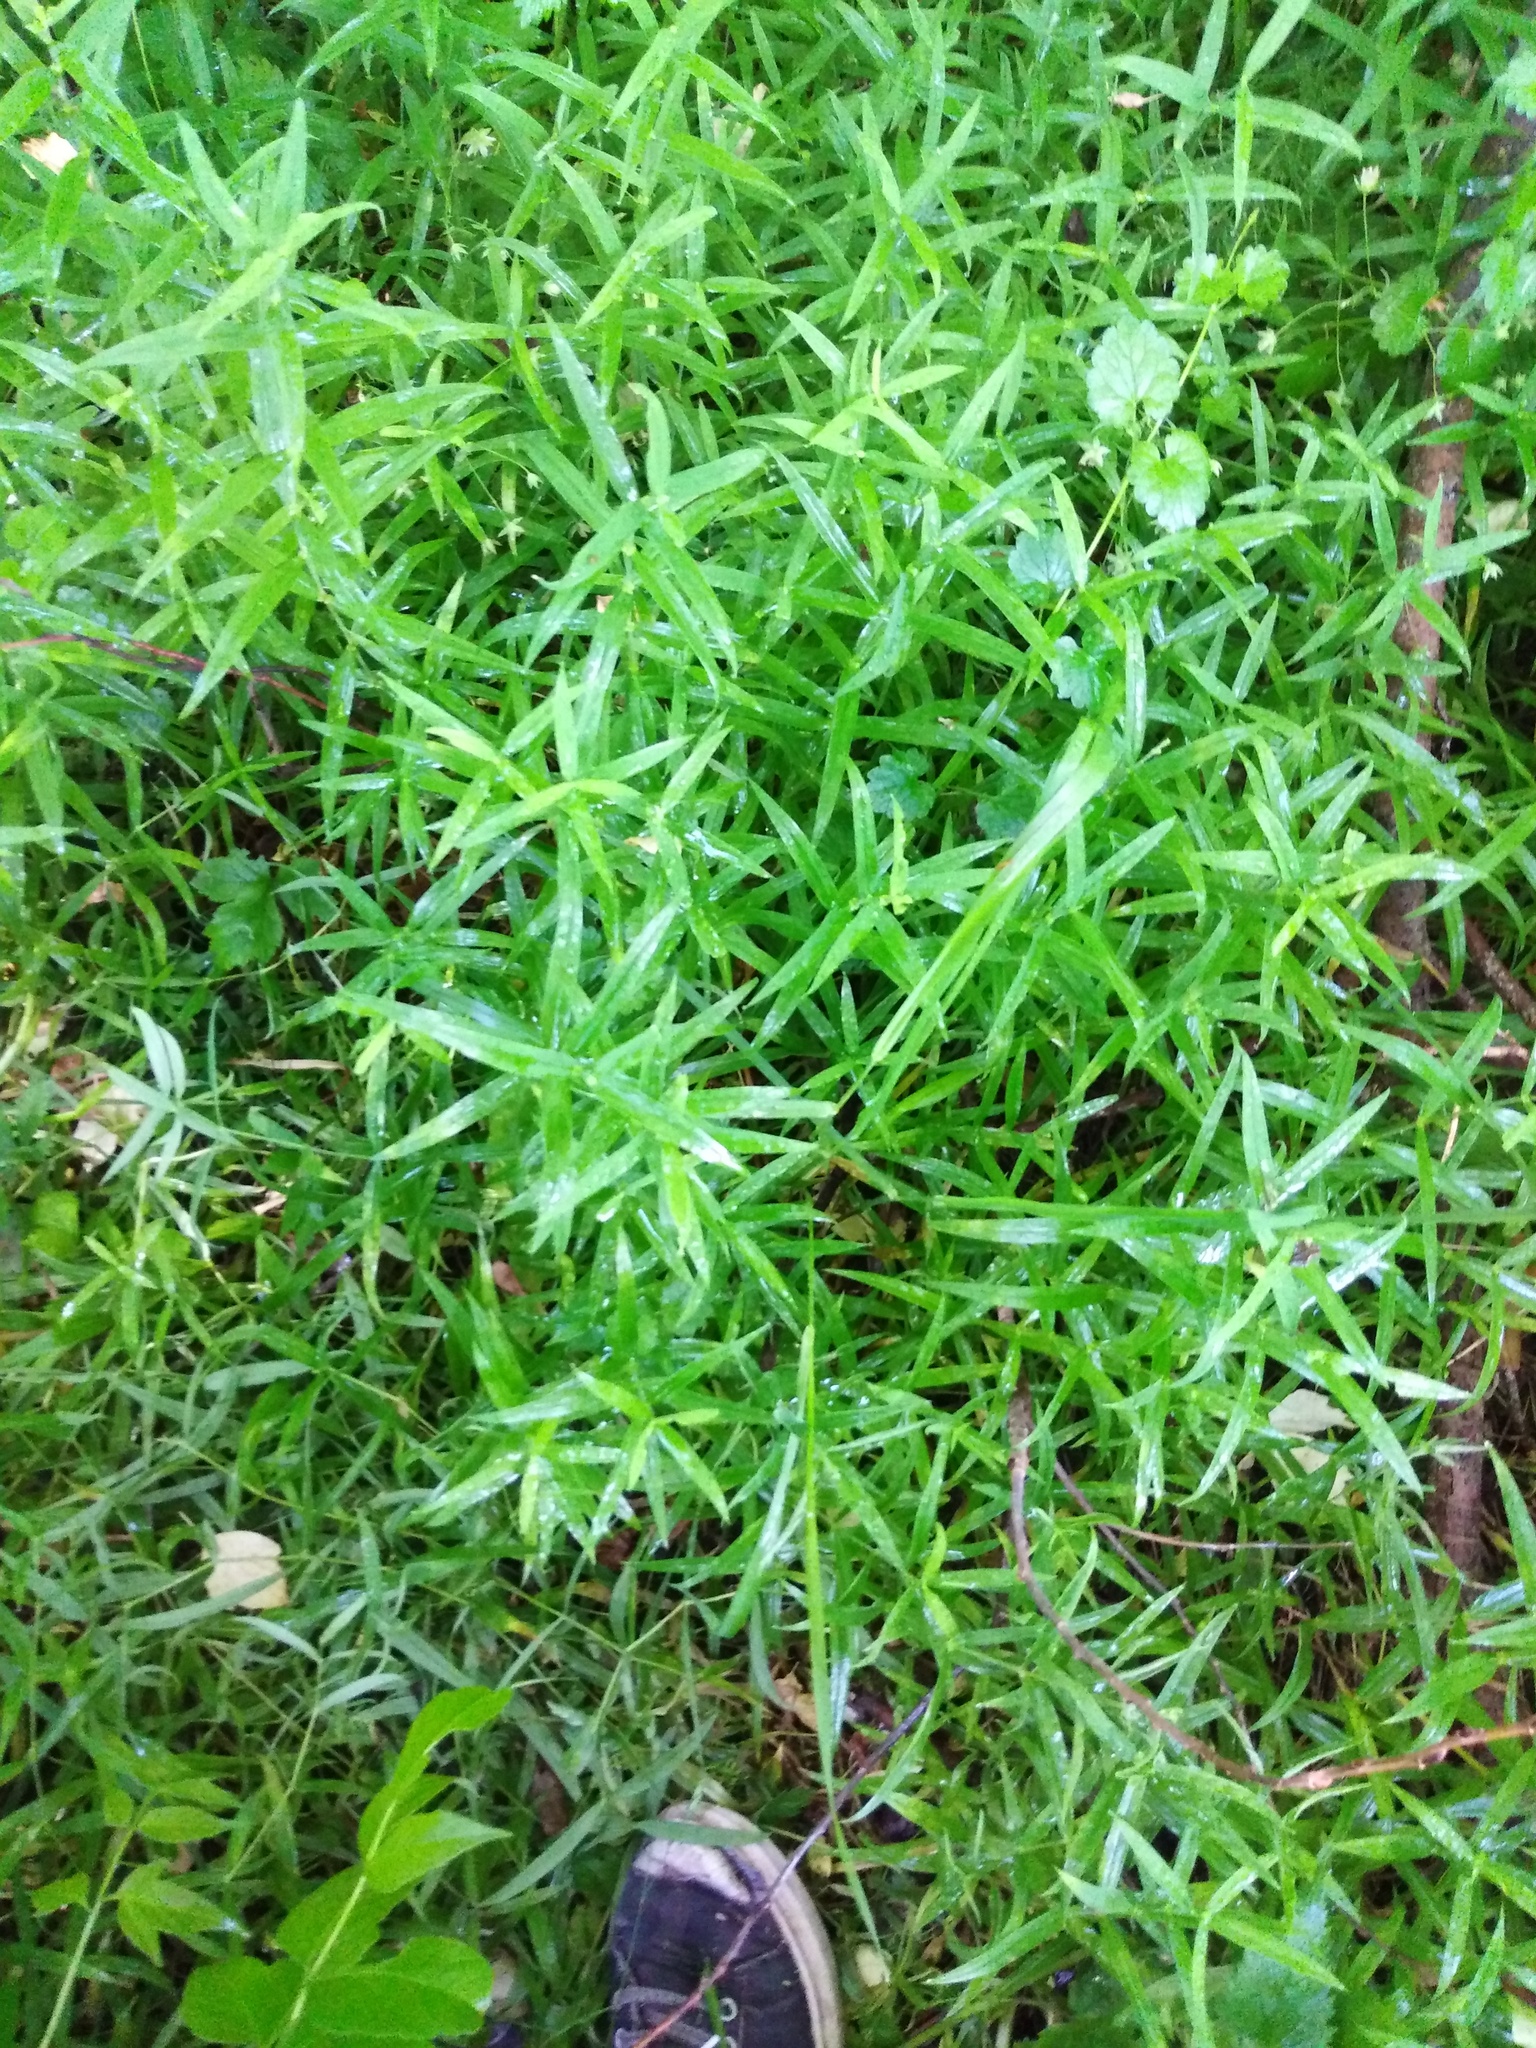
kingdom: Plantae
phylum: Tracheophyta
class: Magnoliopsida
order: Caryophyllales
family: Caryophyllaceae
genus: Rabelera
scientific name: Rabelera holostea
